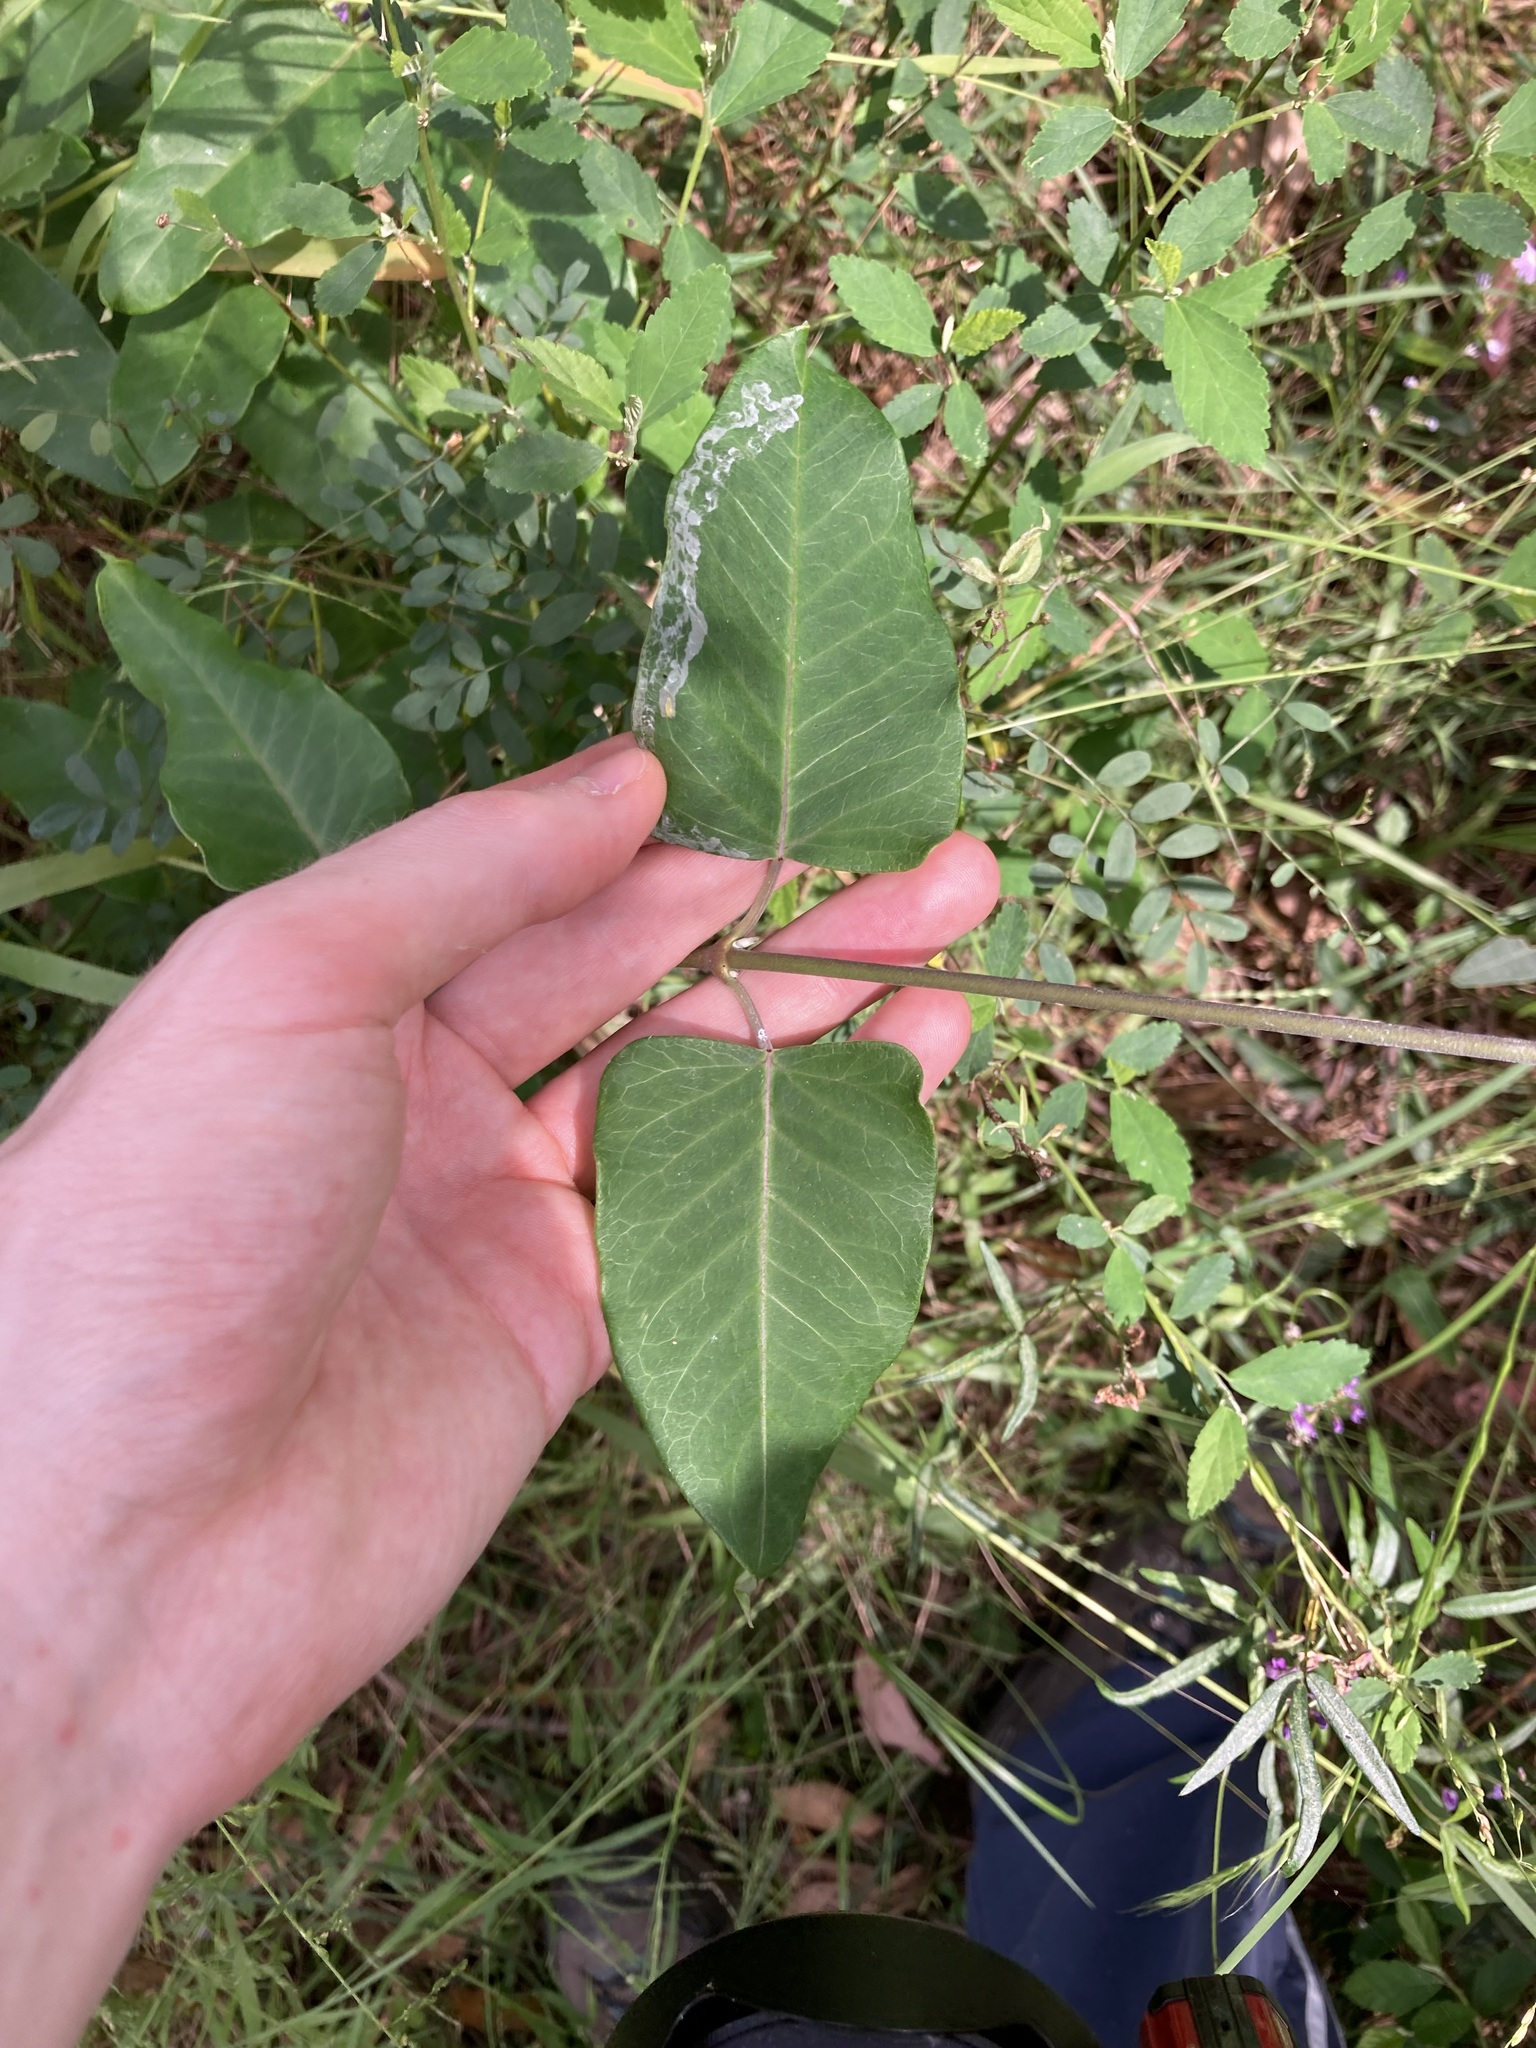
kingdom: Plantae
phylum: Tracheophyta
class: Magnoliopsida
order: Gentianales
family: Apocynaceae
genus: Araujia
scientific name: Araujia sericifera
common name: White bladderflower
